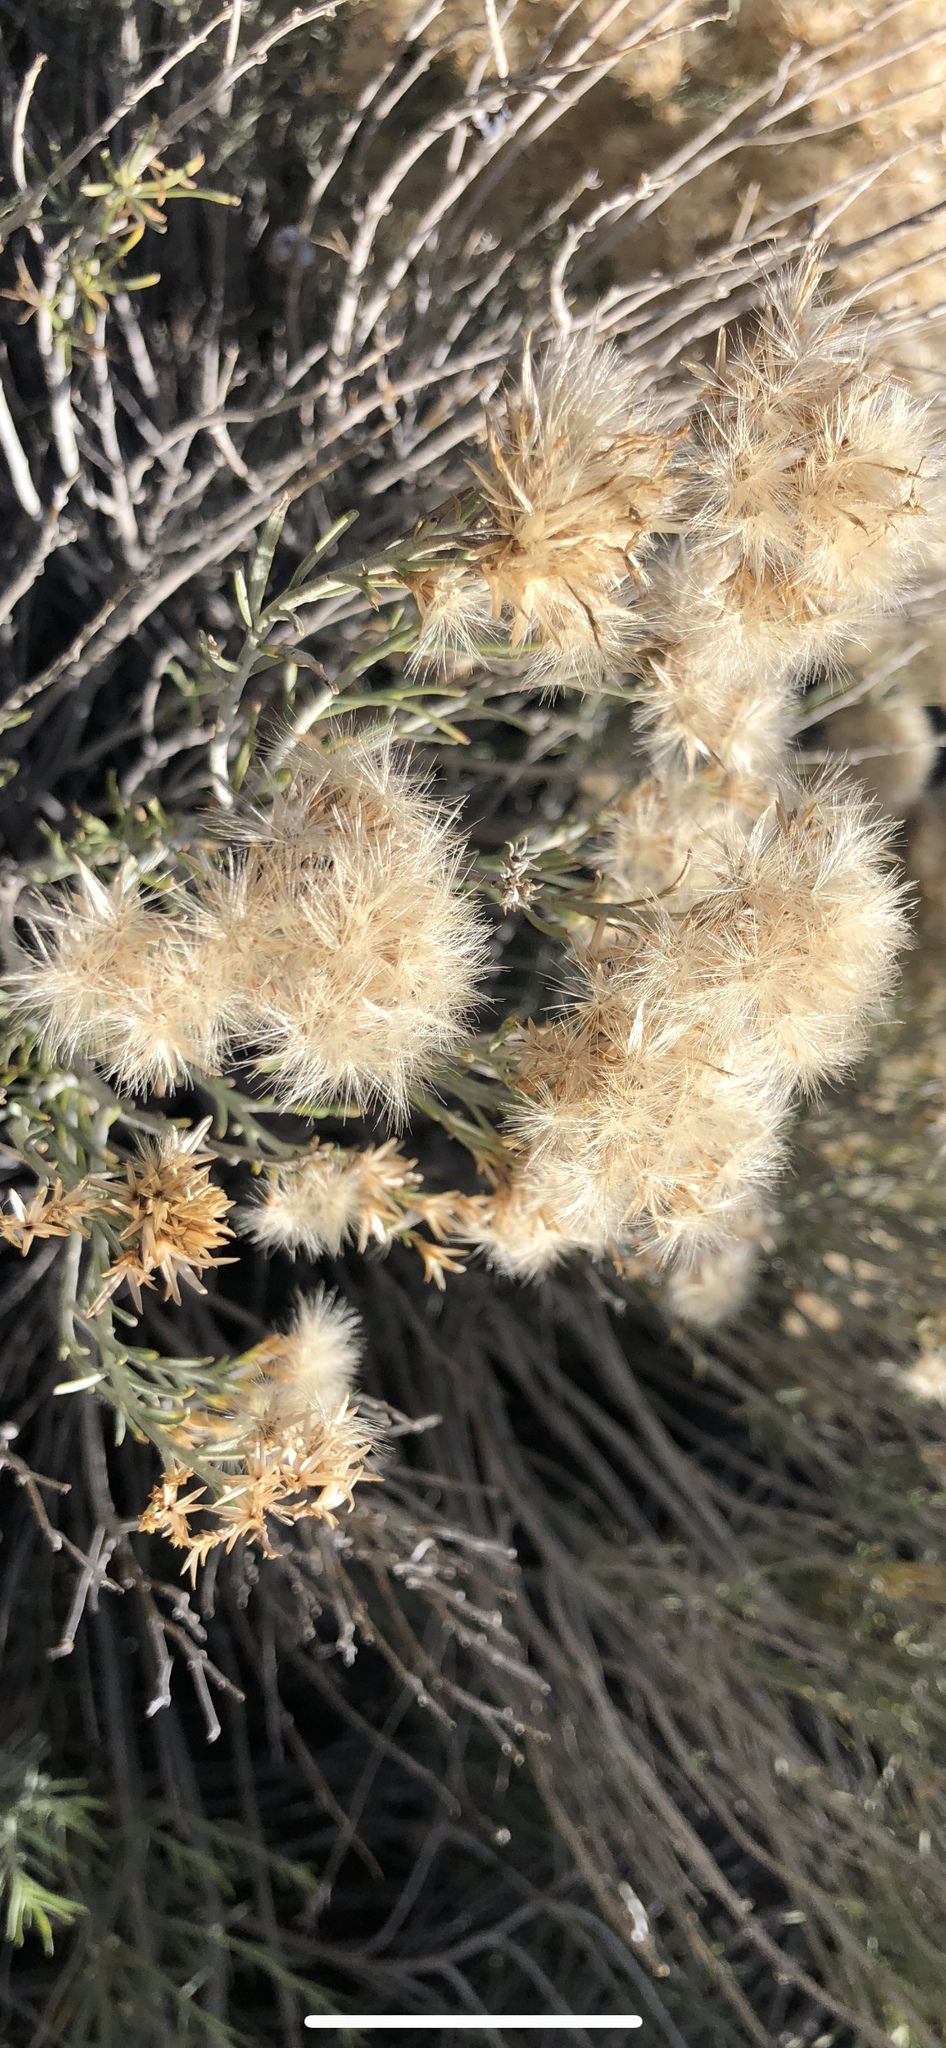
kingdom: Plantae
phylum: Tracheophyta
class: Magnoliopsida
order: Asterales
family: Asteraceae
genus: Ericameria
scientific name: Ericameria nauseosa
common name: Rubber rabbitbrush
